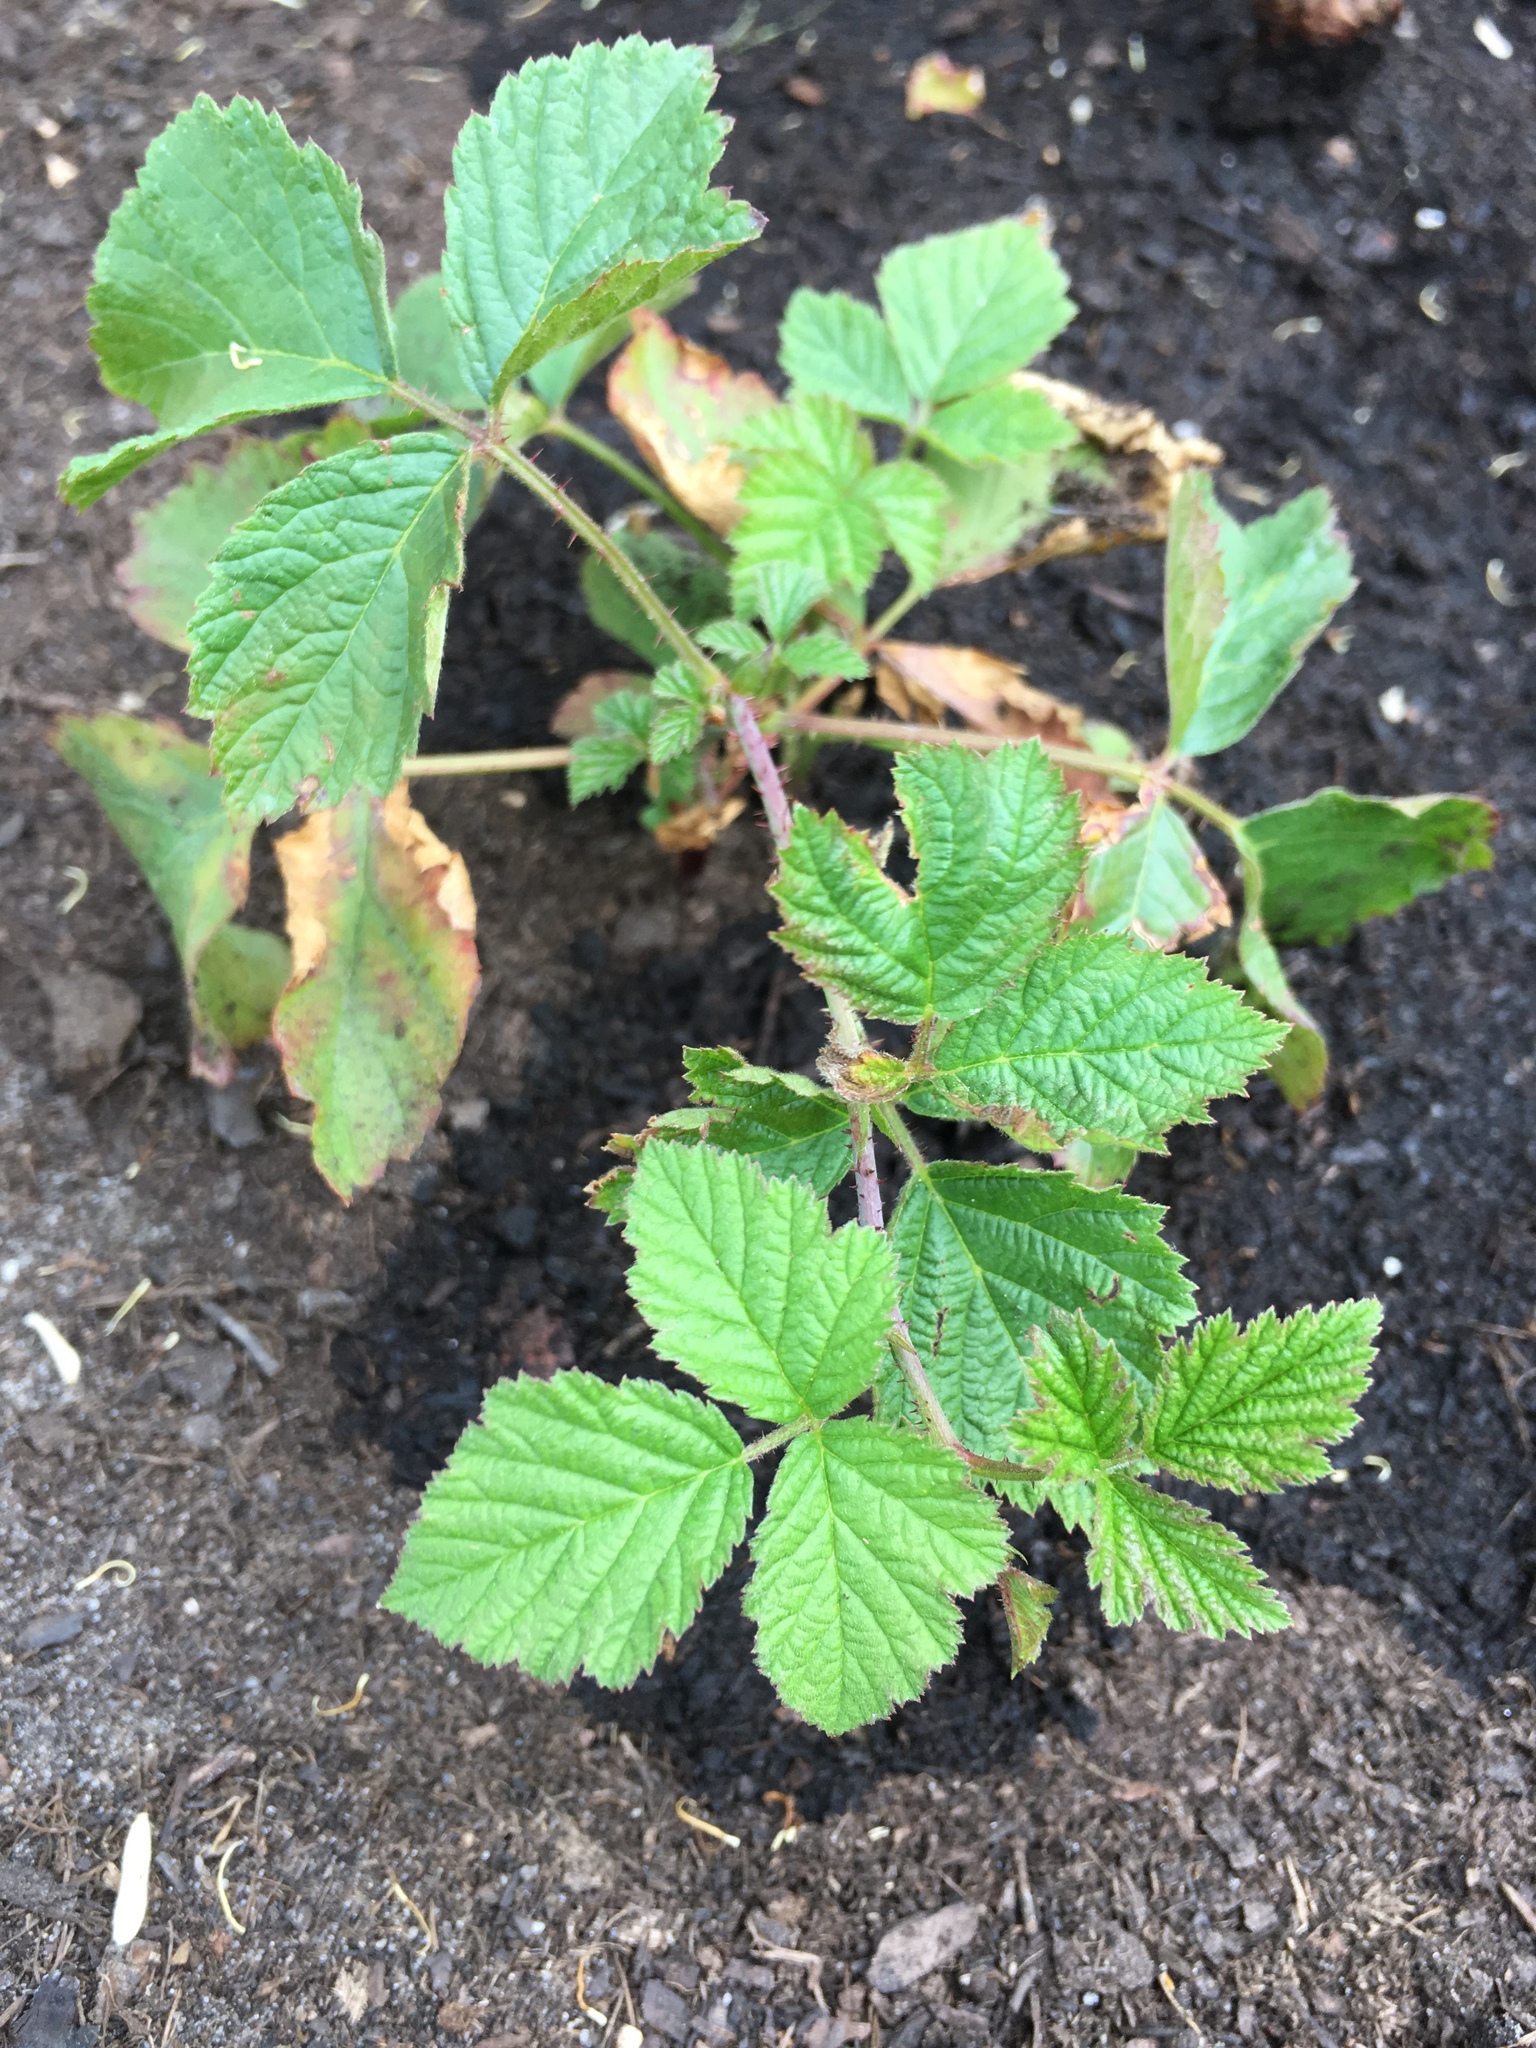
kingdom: Plantae
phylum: Tracheophyta
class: Magnoliopsida
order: Rosales
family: Rosaceae
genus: Rubus
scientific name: Rubus caesius
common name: Dewberry
